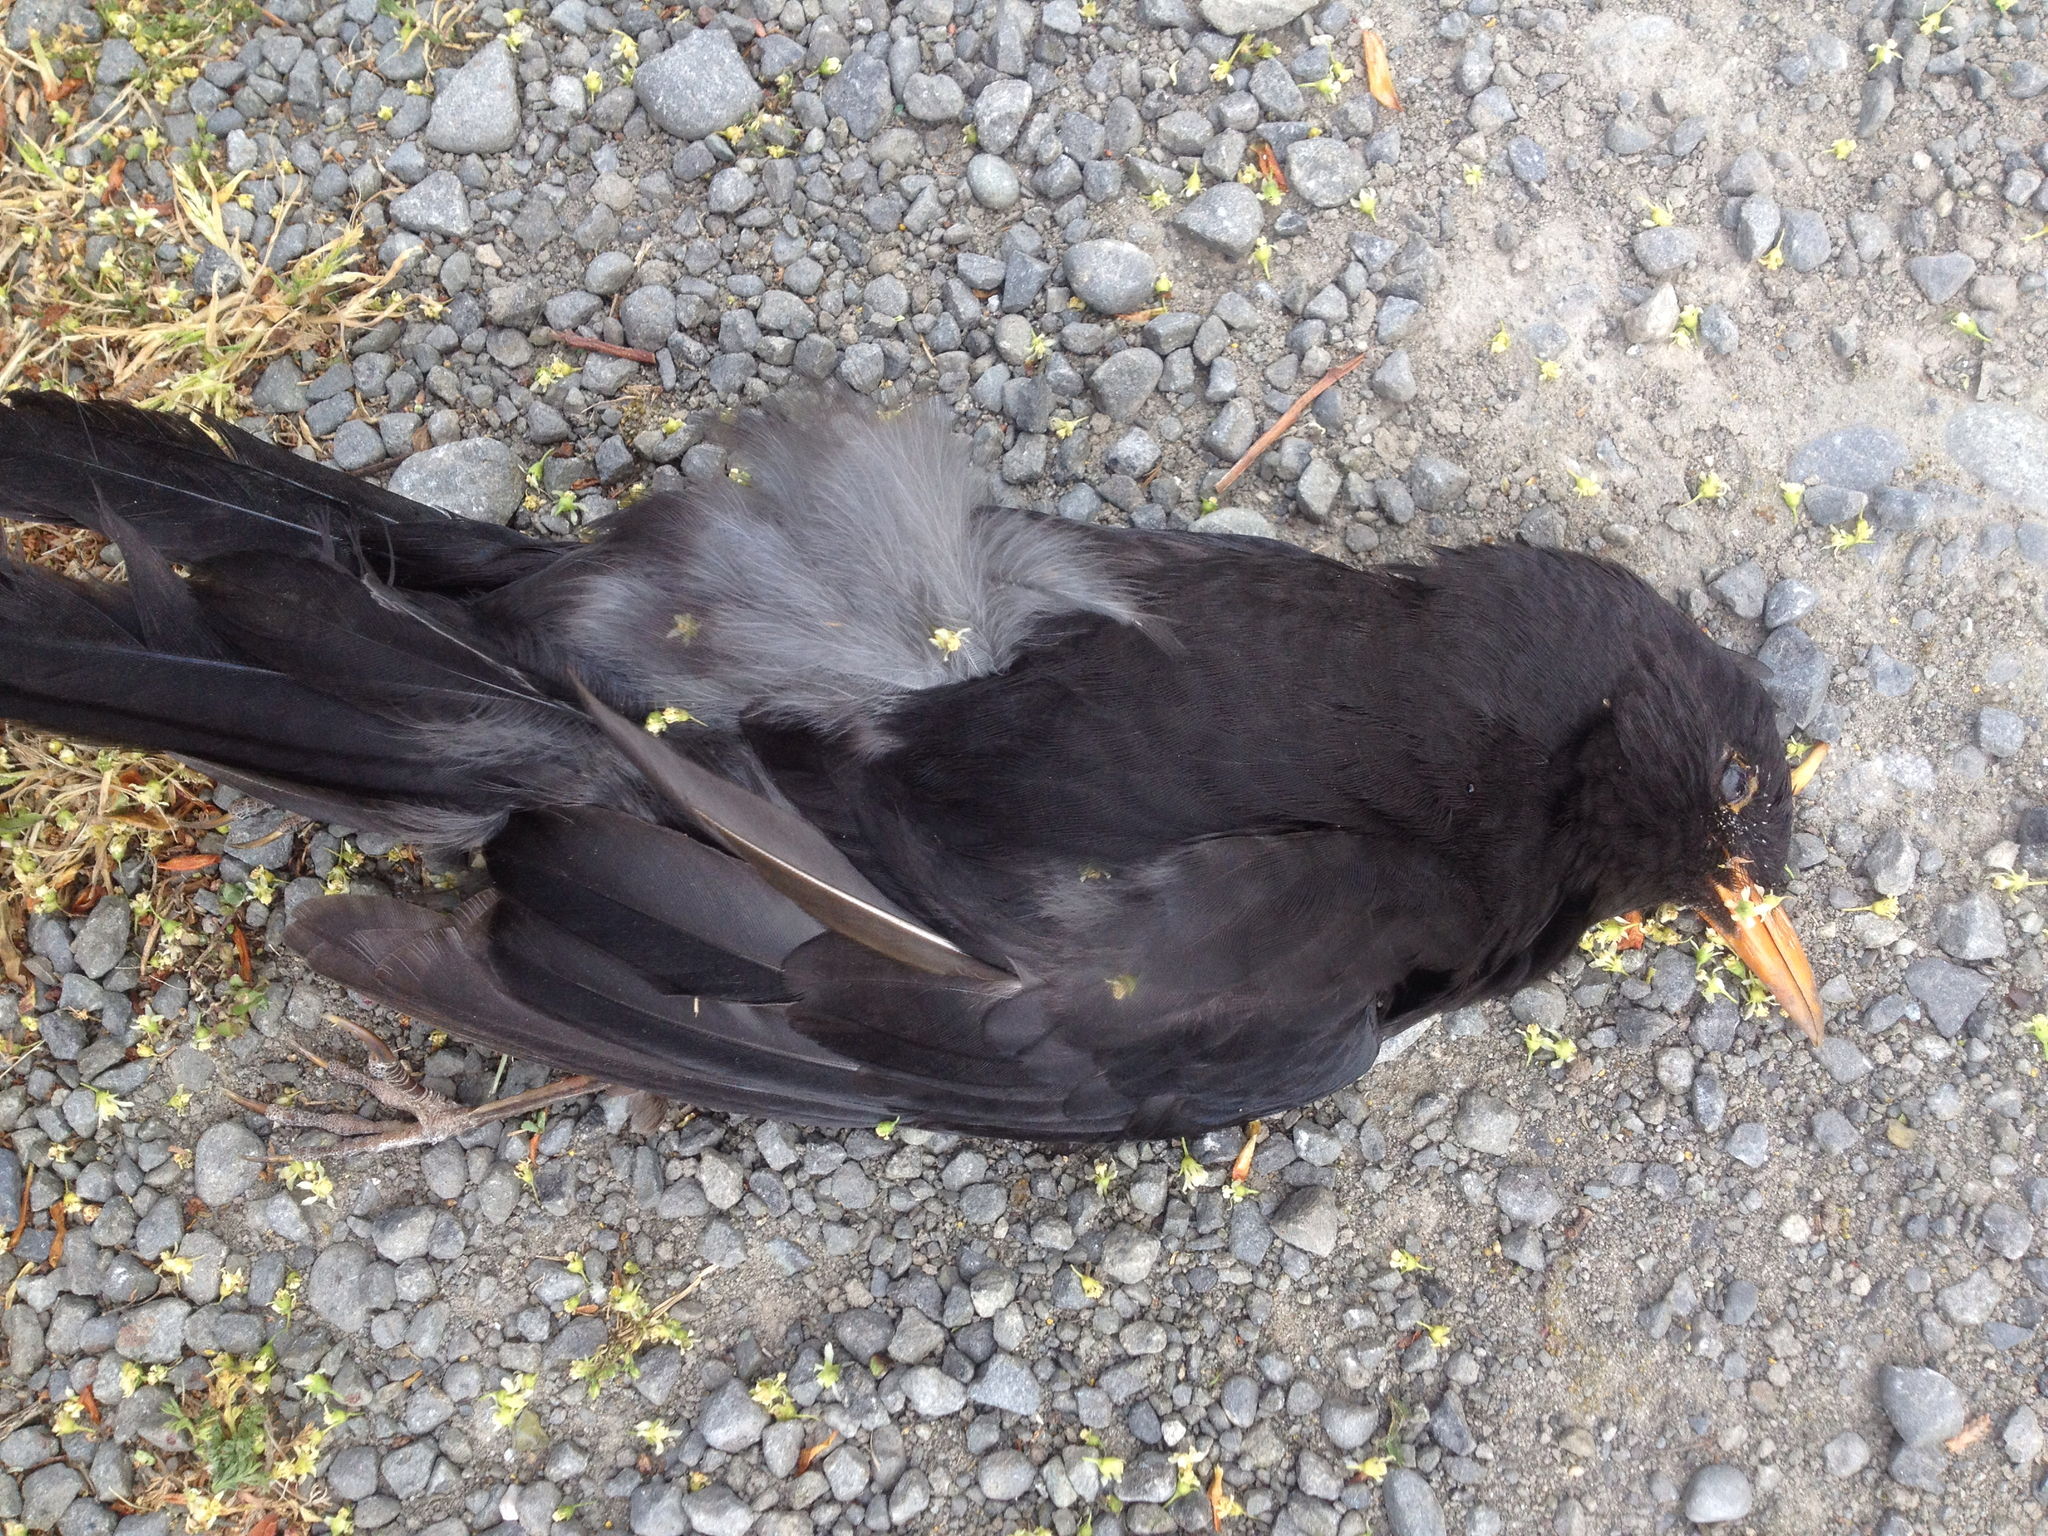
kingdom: Animalia
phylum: Chordata
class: Aves
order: Passeriformes
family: Turdidae
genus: Turdus
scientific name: Turdus merula
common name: Common blackbird
